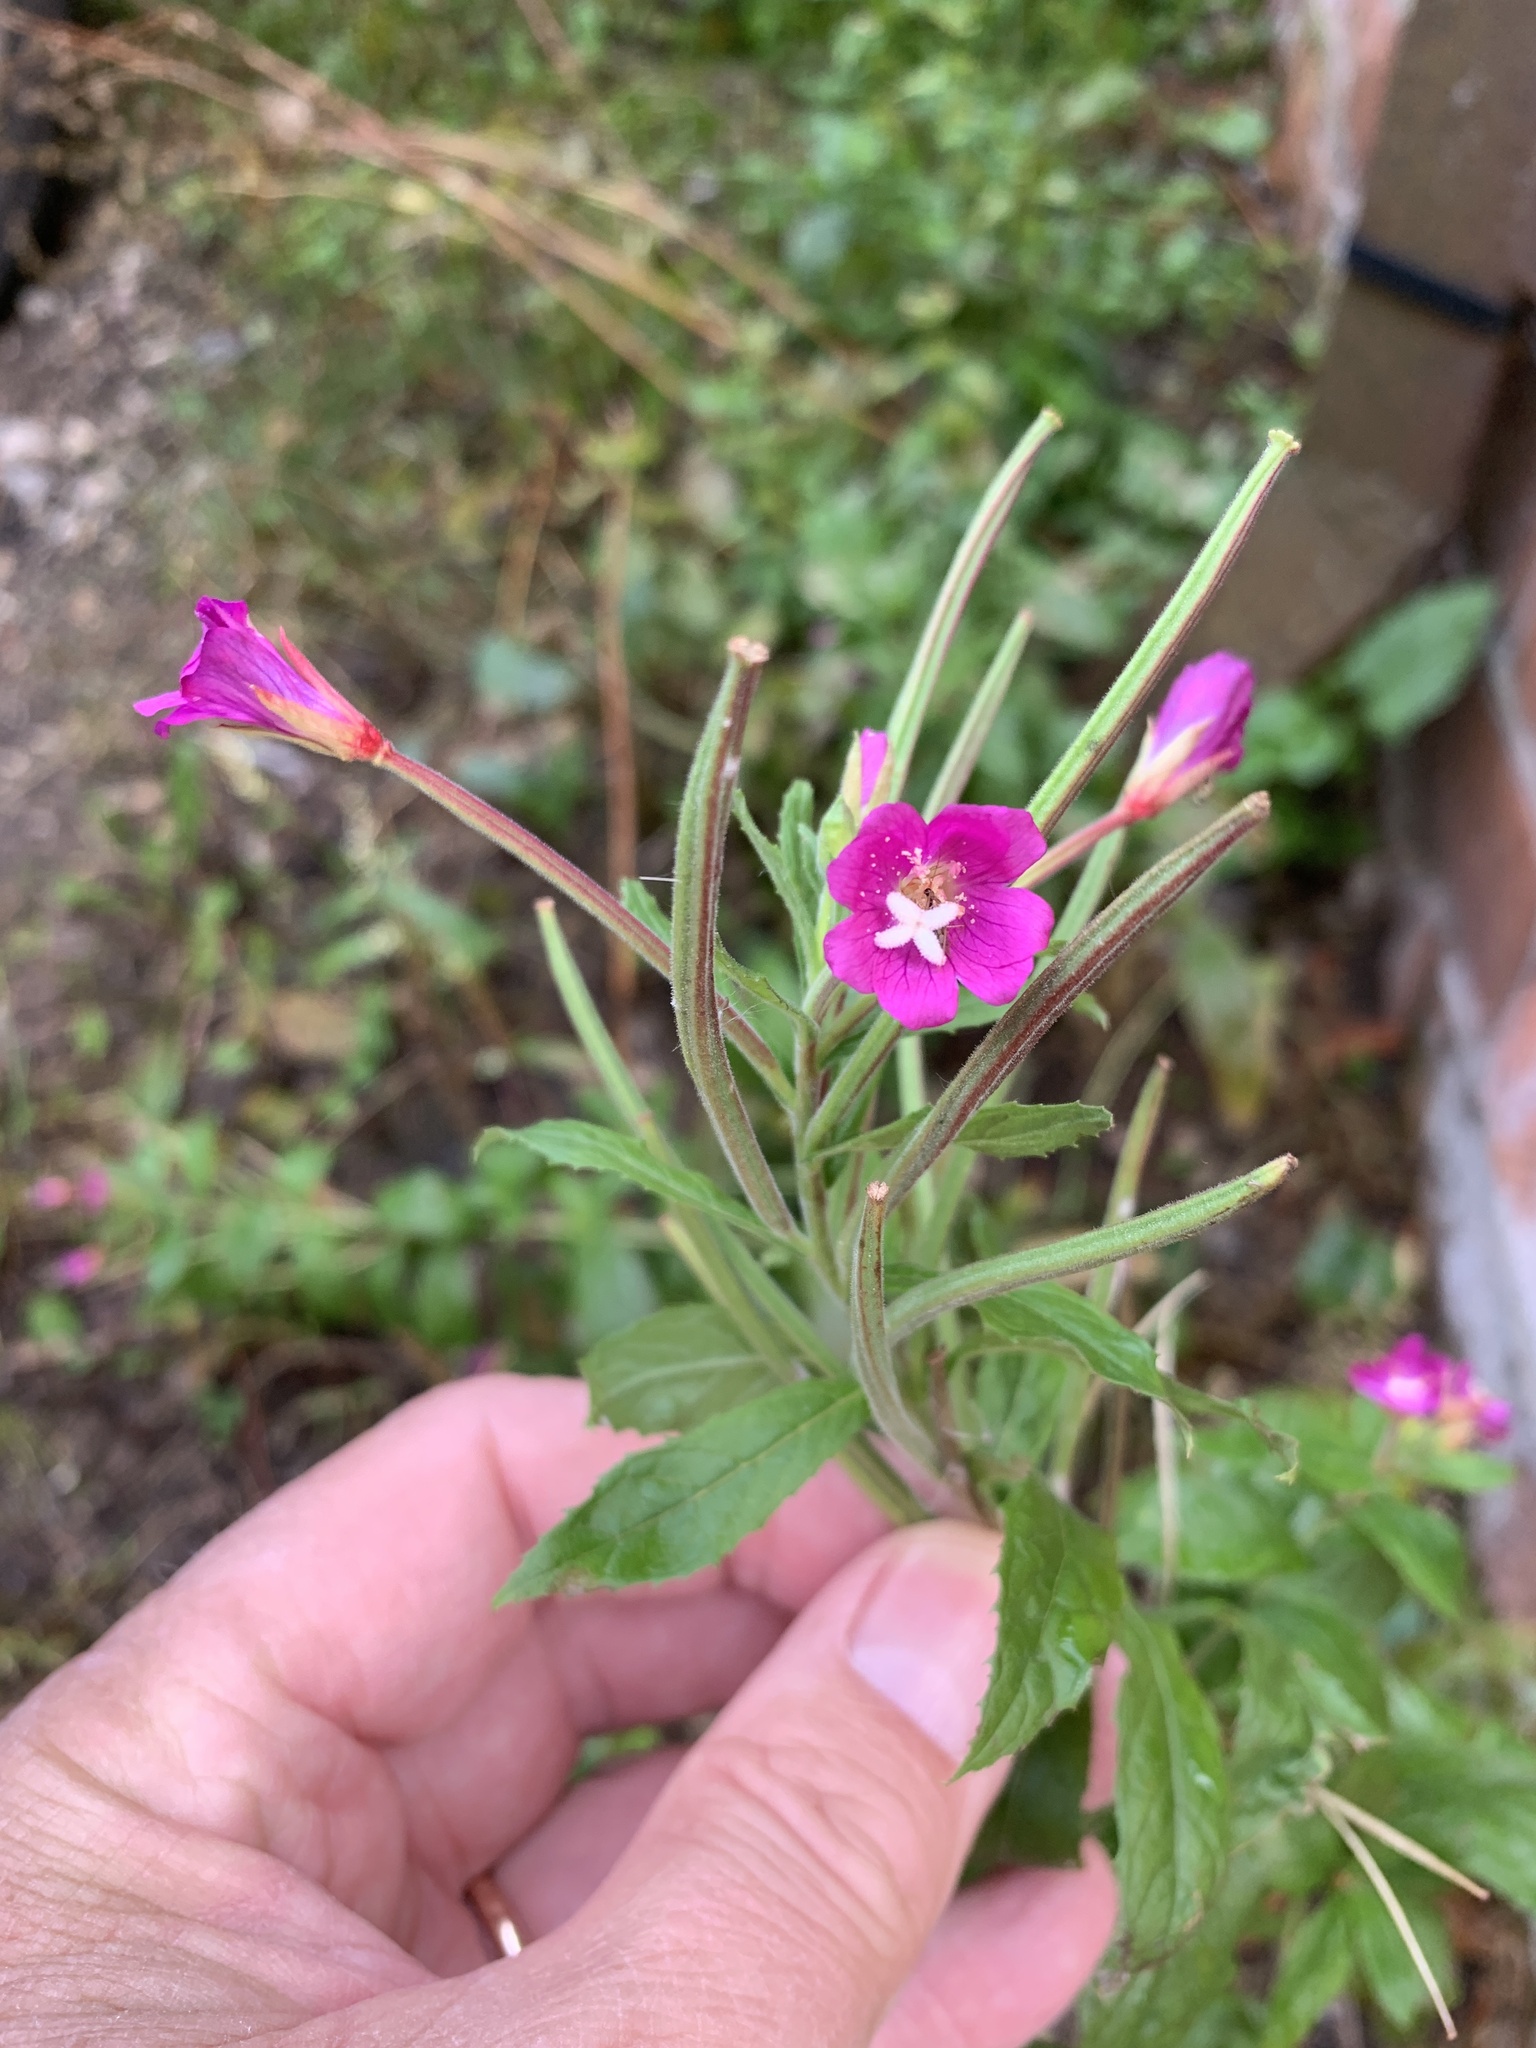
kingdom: Plantae
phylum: Tracheophyta
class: Magnoliopsida
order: Myrtales
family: Onagraceae
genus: Epilobium
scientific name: Epilobium hirsutum
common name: Great willowherb
